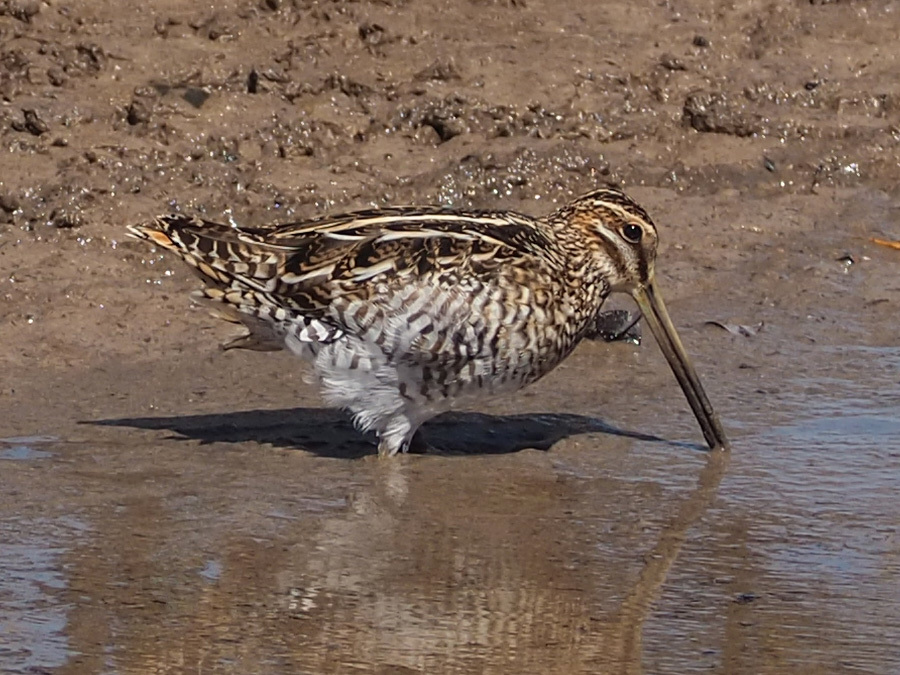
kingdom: Animalia
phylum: Chordata
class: Aves
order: Charadriiformes
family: Scolopacidae
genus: Gallinago
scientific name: Gallinago delicata
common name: Wilson's snipe
